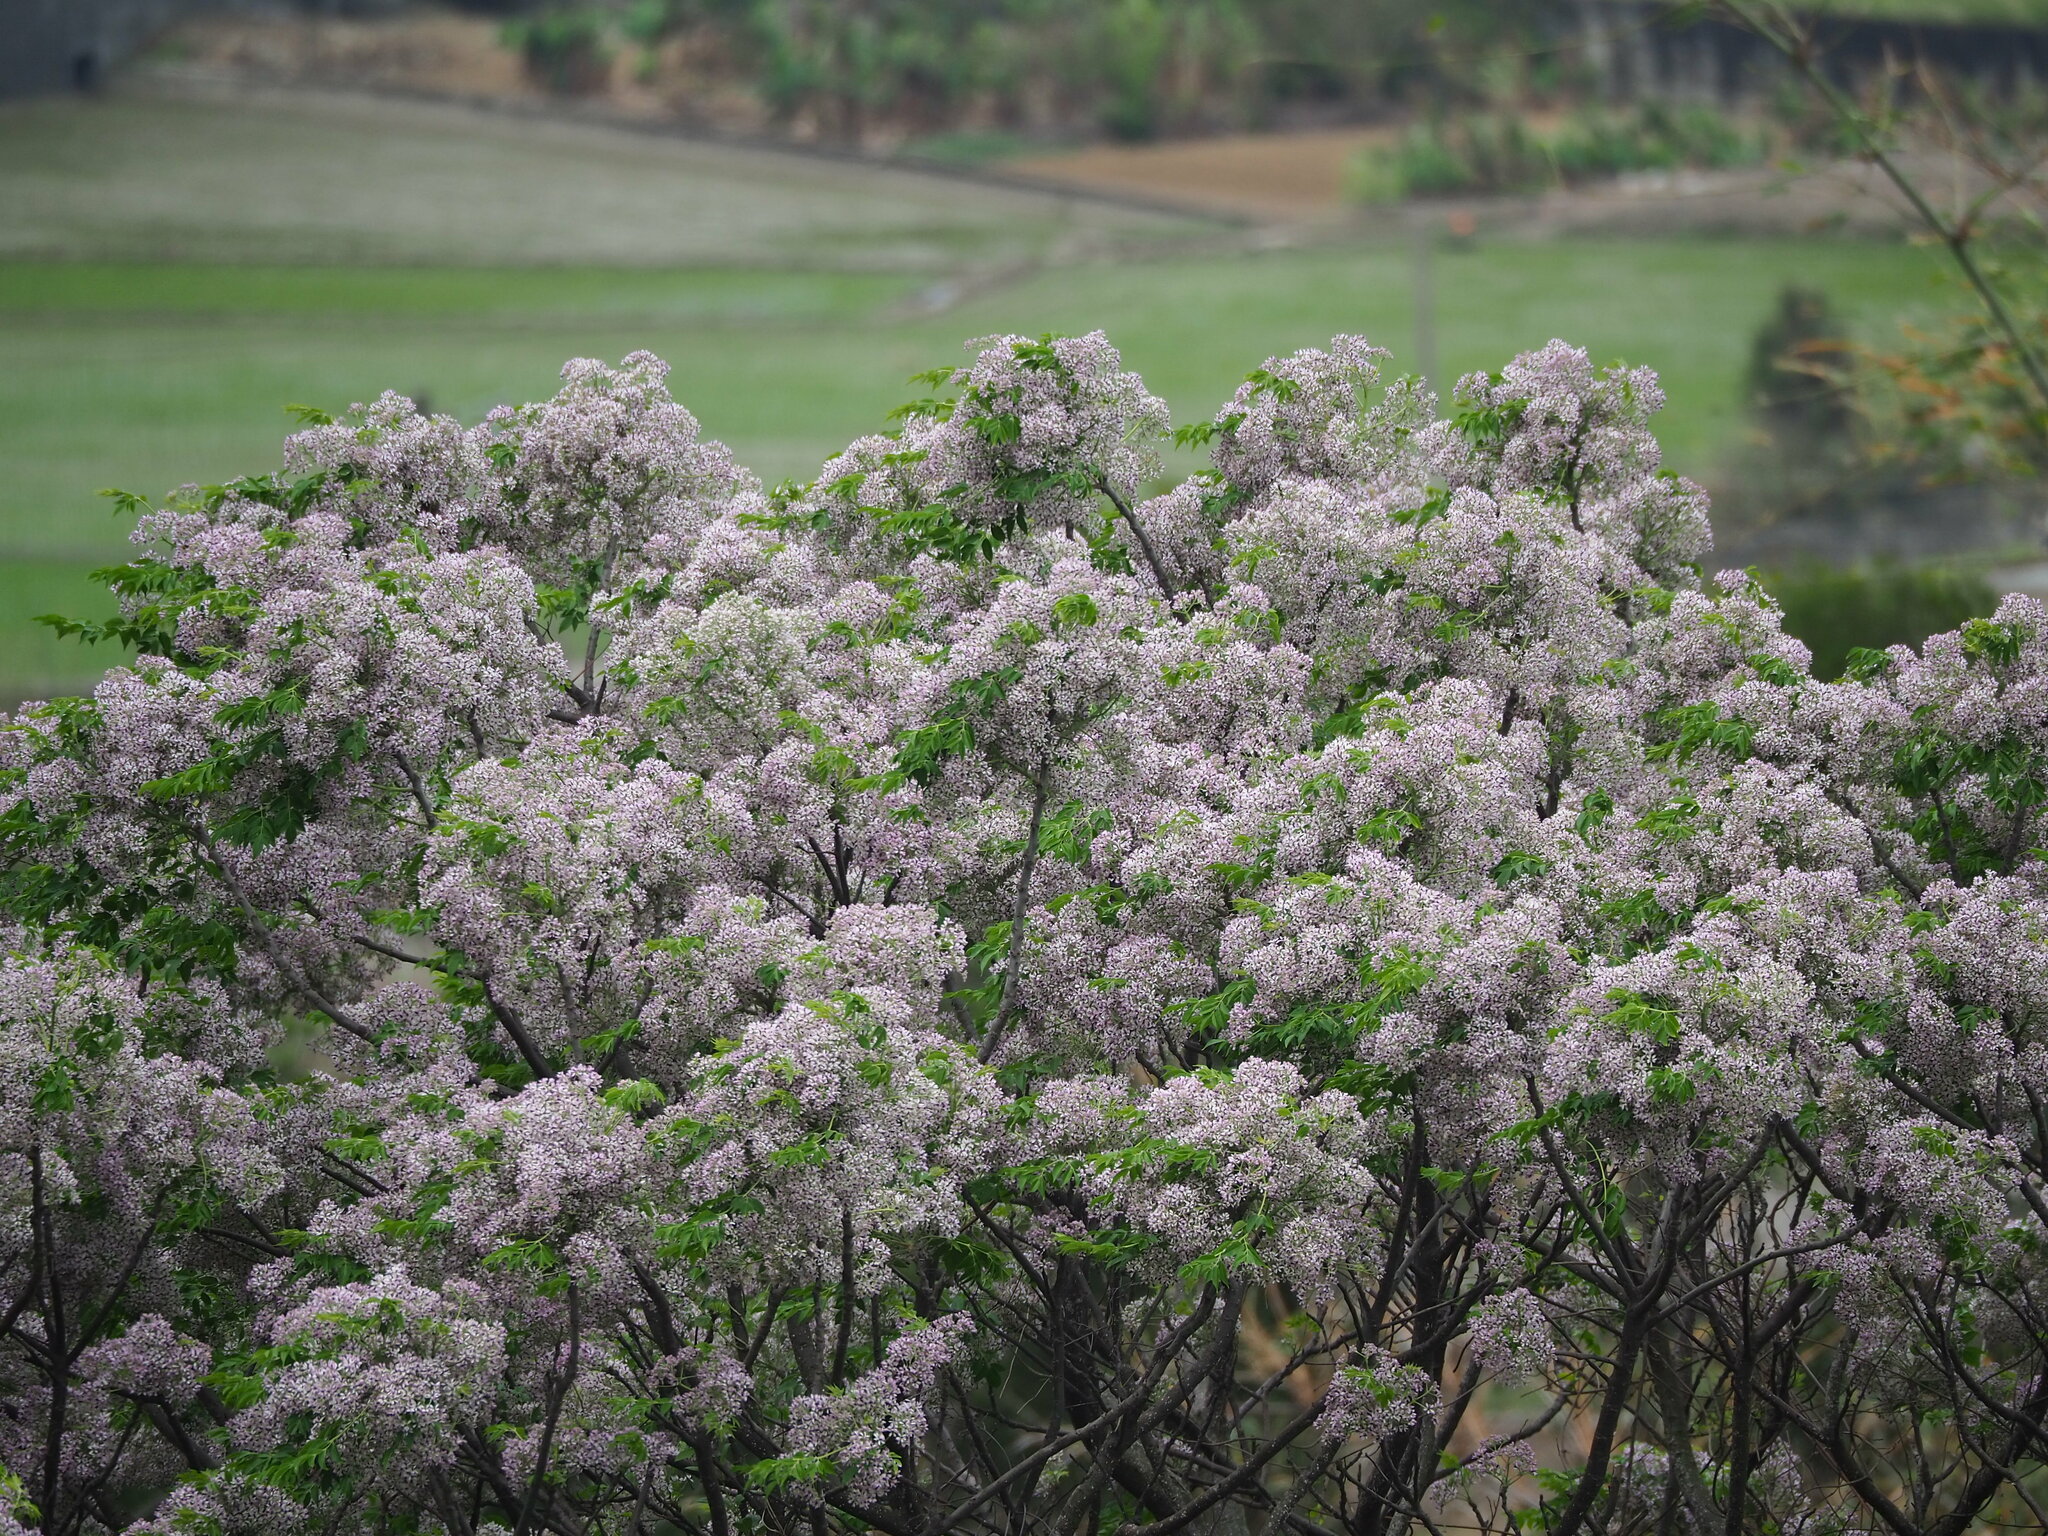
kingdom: Plantae
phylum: Tracheophyta
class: Magnoliopsida
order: Sapindales
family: Meliaceae
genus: Melia
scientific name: Melia azedarach
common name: Chinaberrytree
